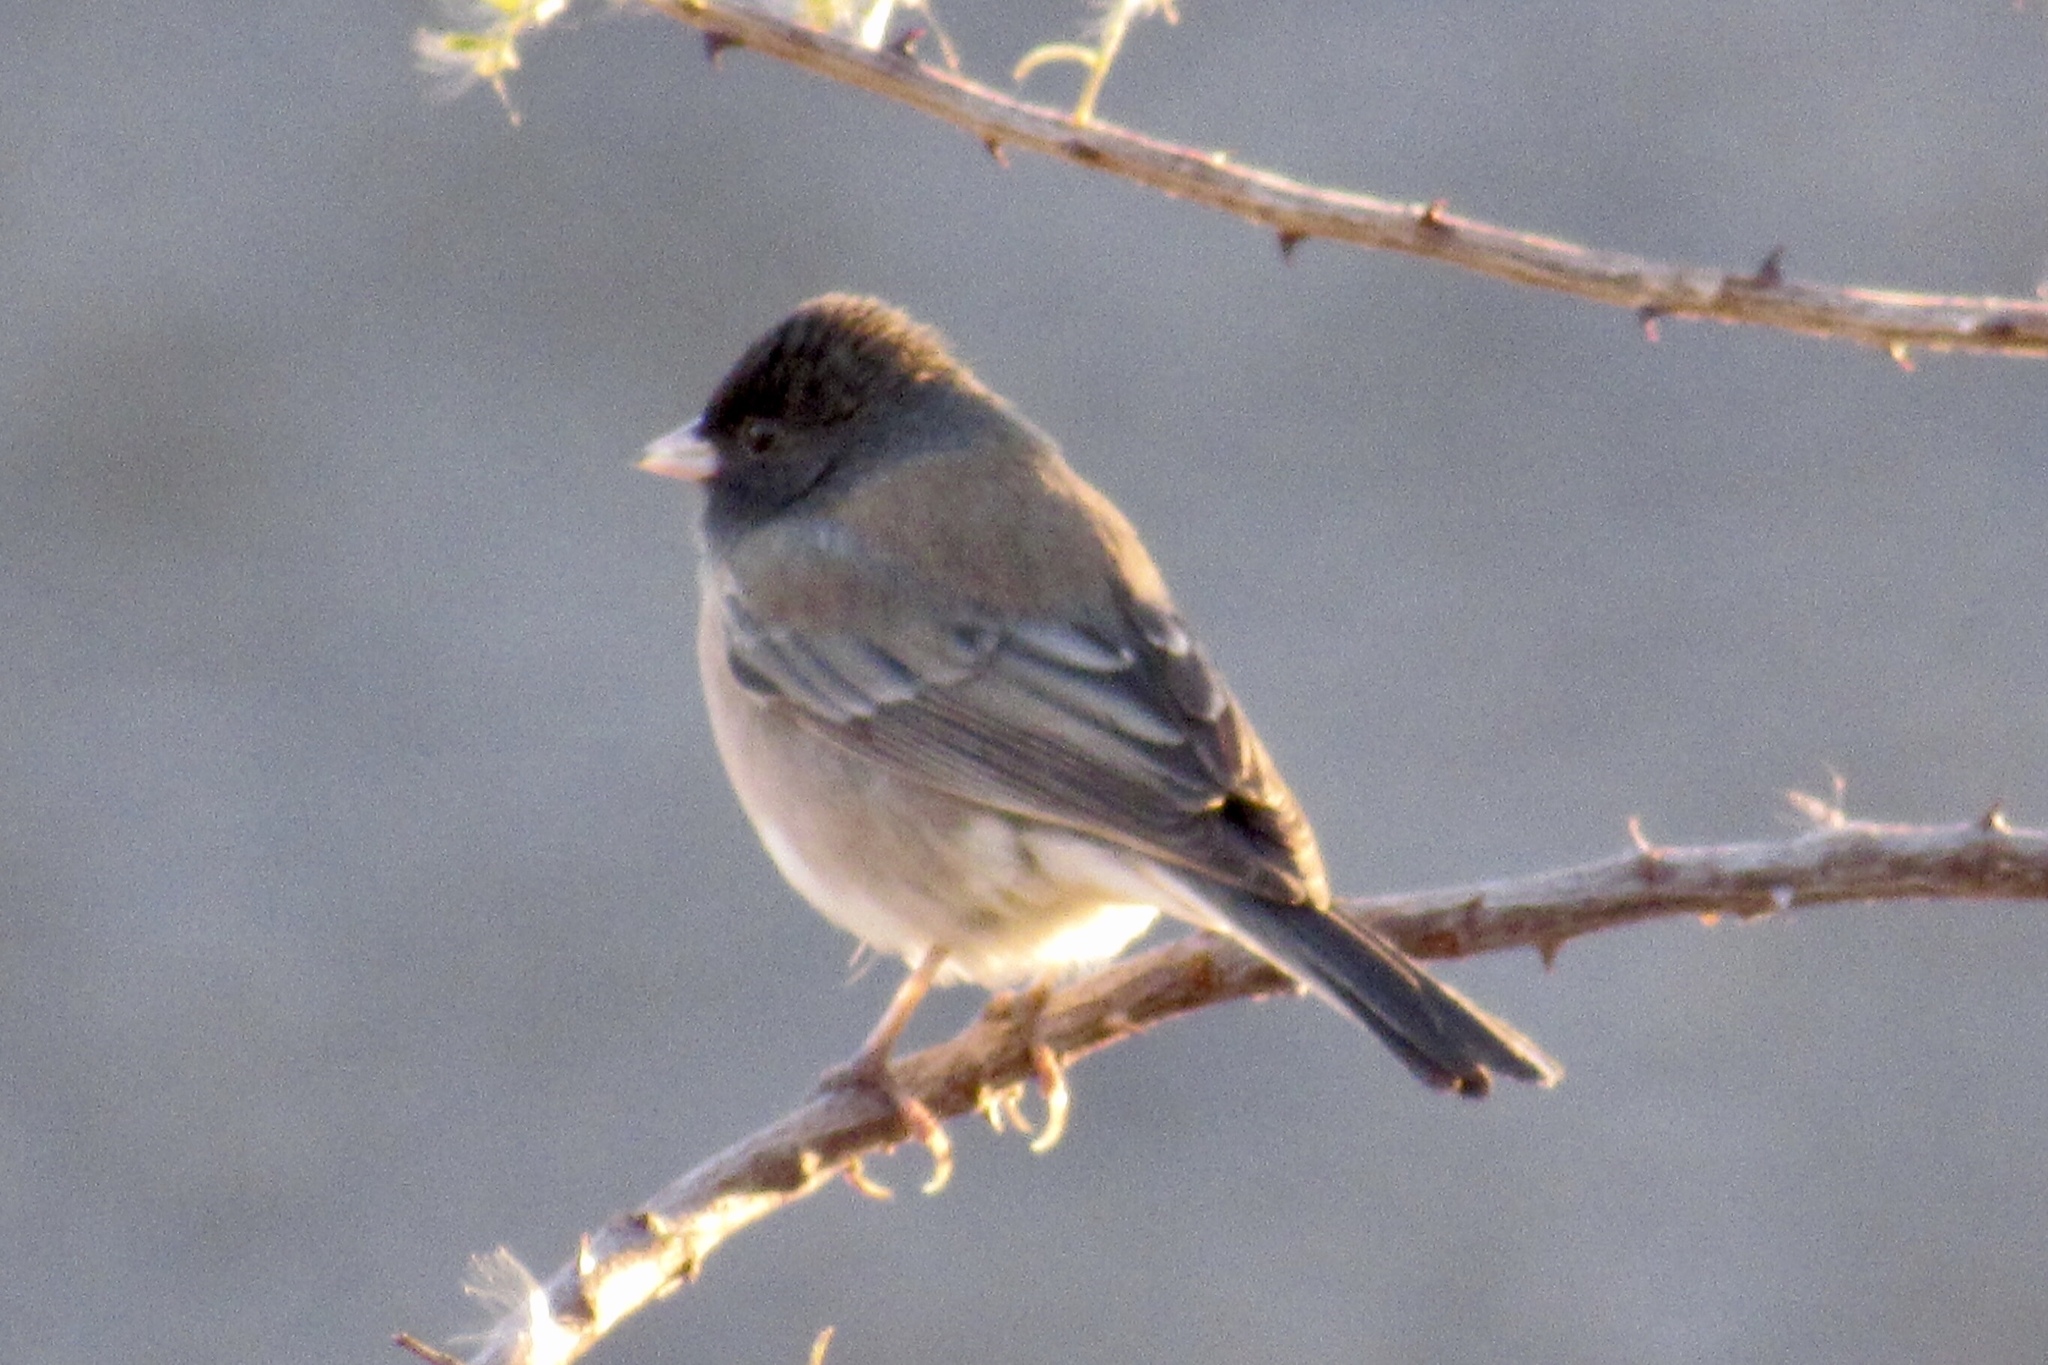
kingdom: Animalia
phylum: Chordata
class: Aves
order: Passeriformes
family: Passerellidae
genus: Junco
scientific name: Junco hyemalis
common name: Dark-eyed junco
